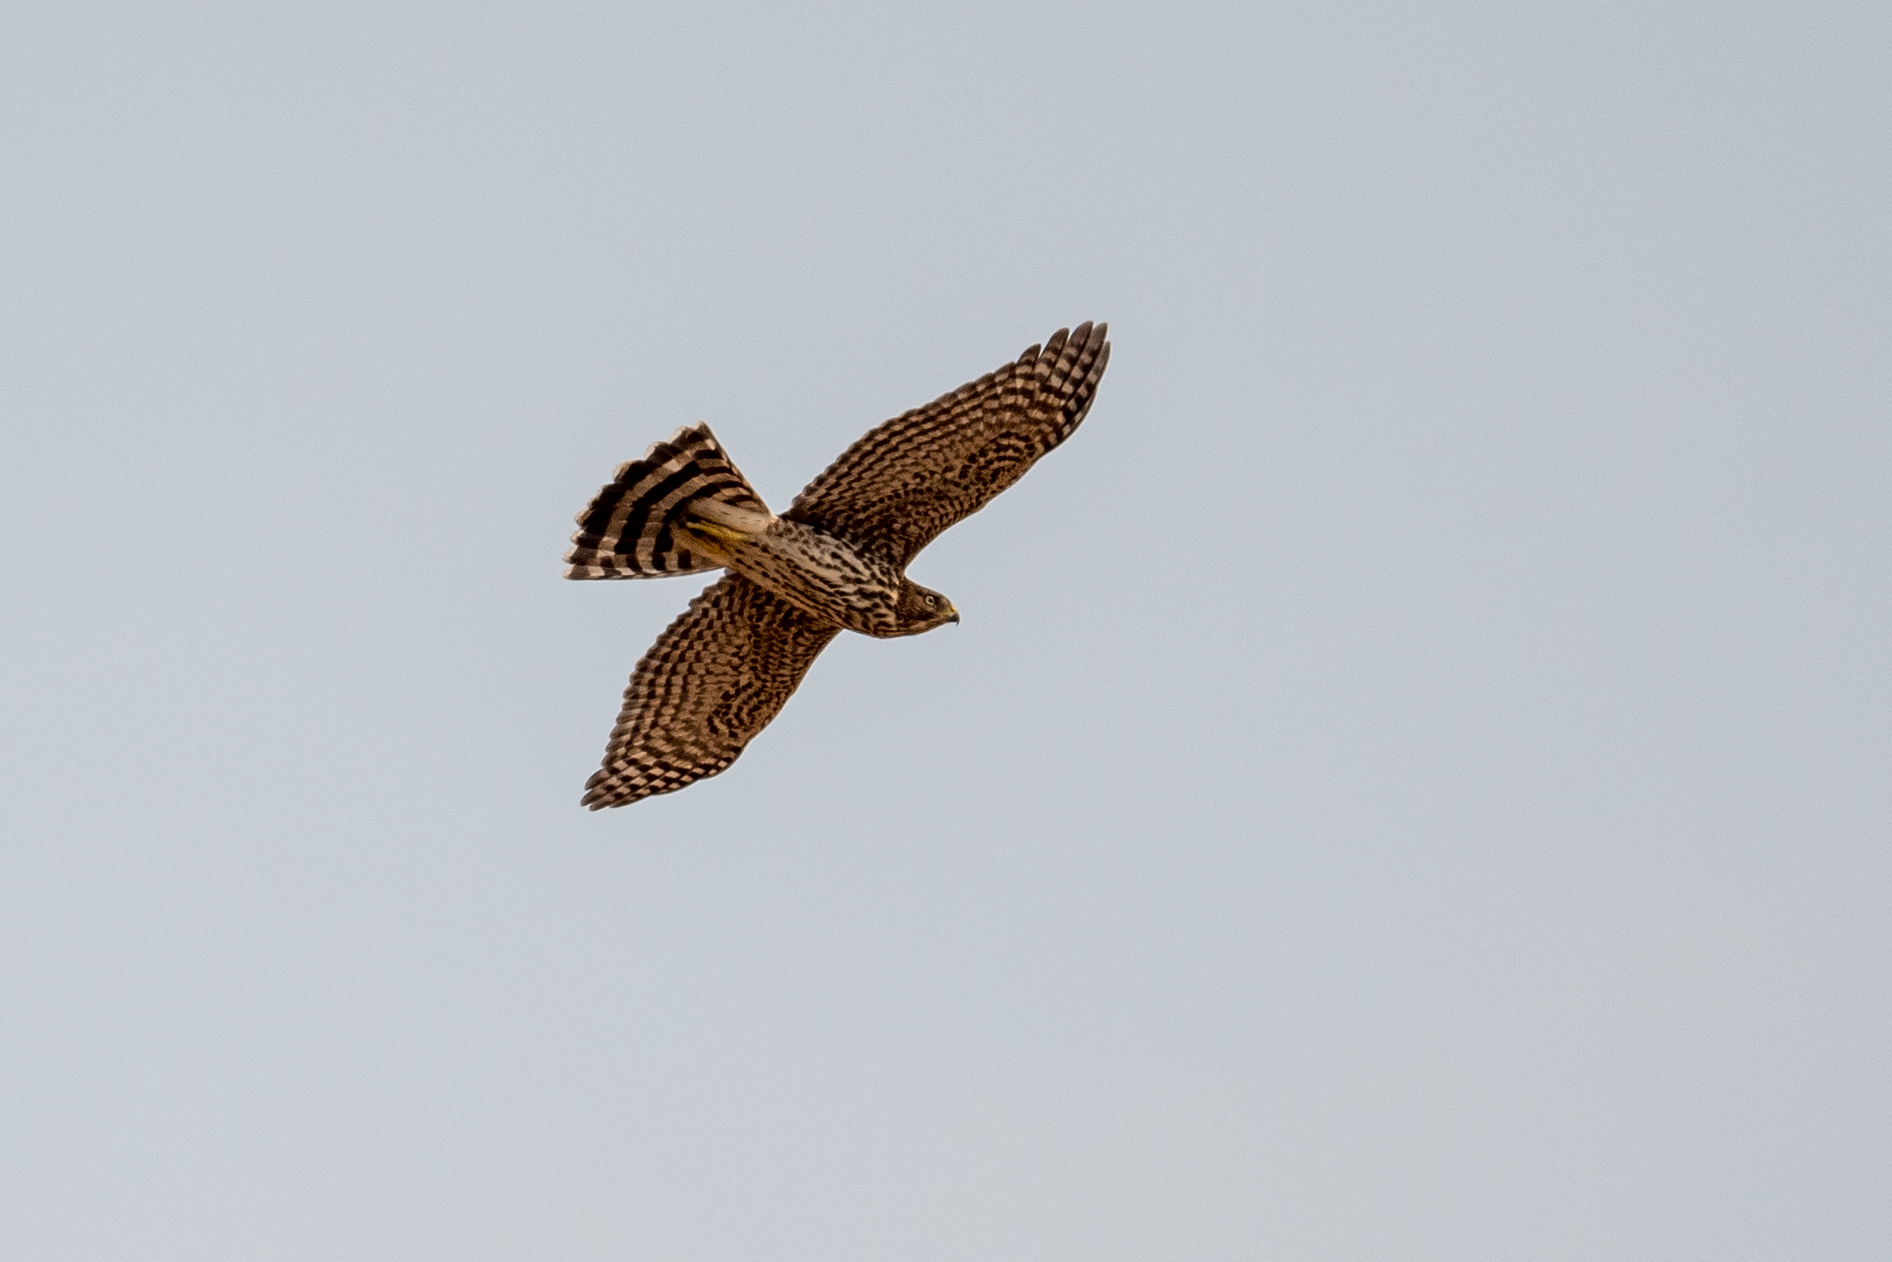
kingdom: Animalia
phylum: Chordata
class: Aves
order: Accipitriformes
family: Accipitridae
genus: Accipiter
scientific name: Accipiter cooperii
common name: Cooper's hawk
